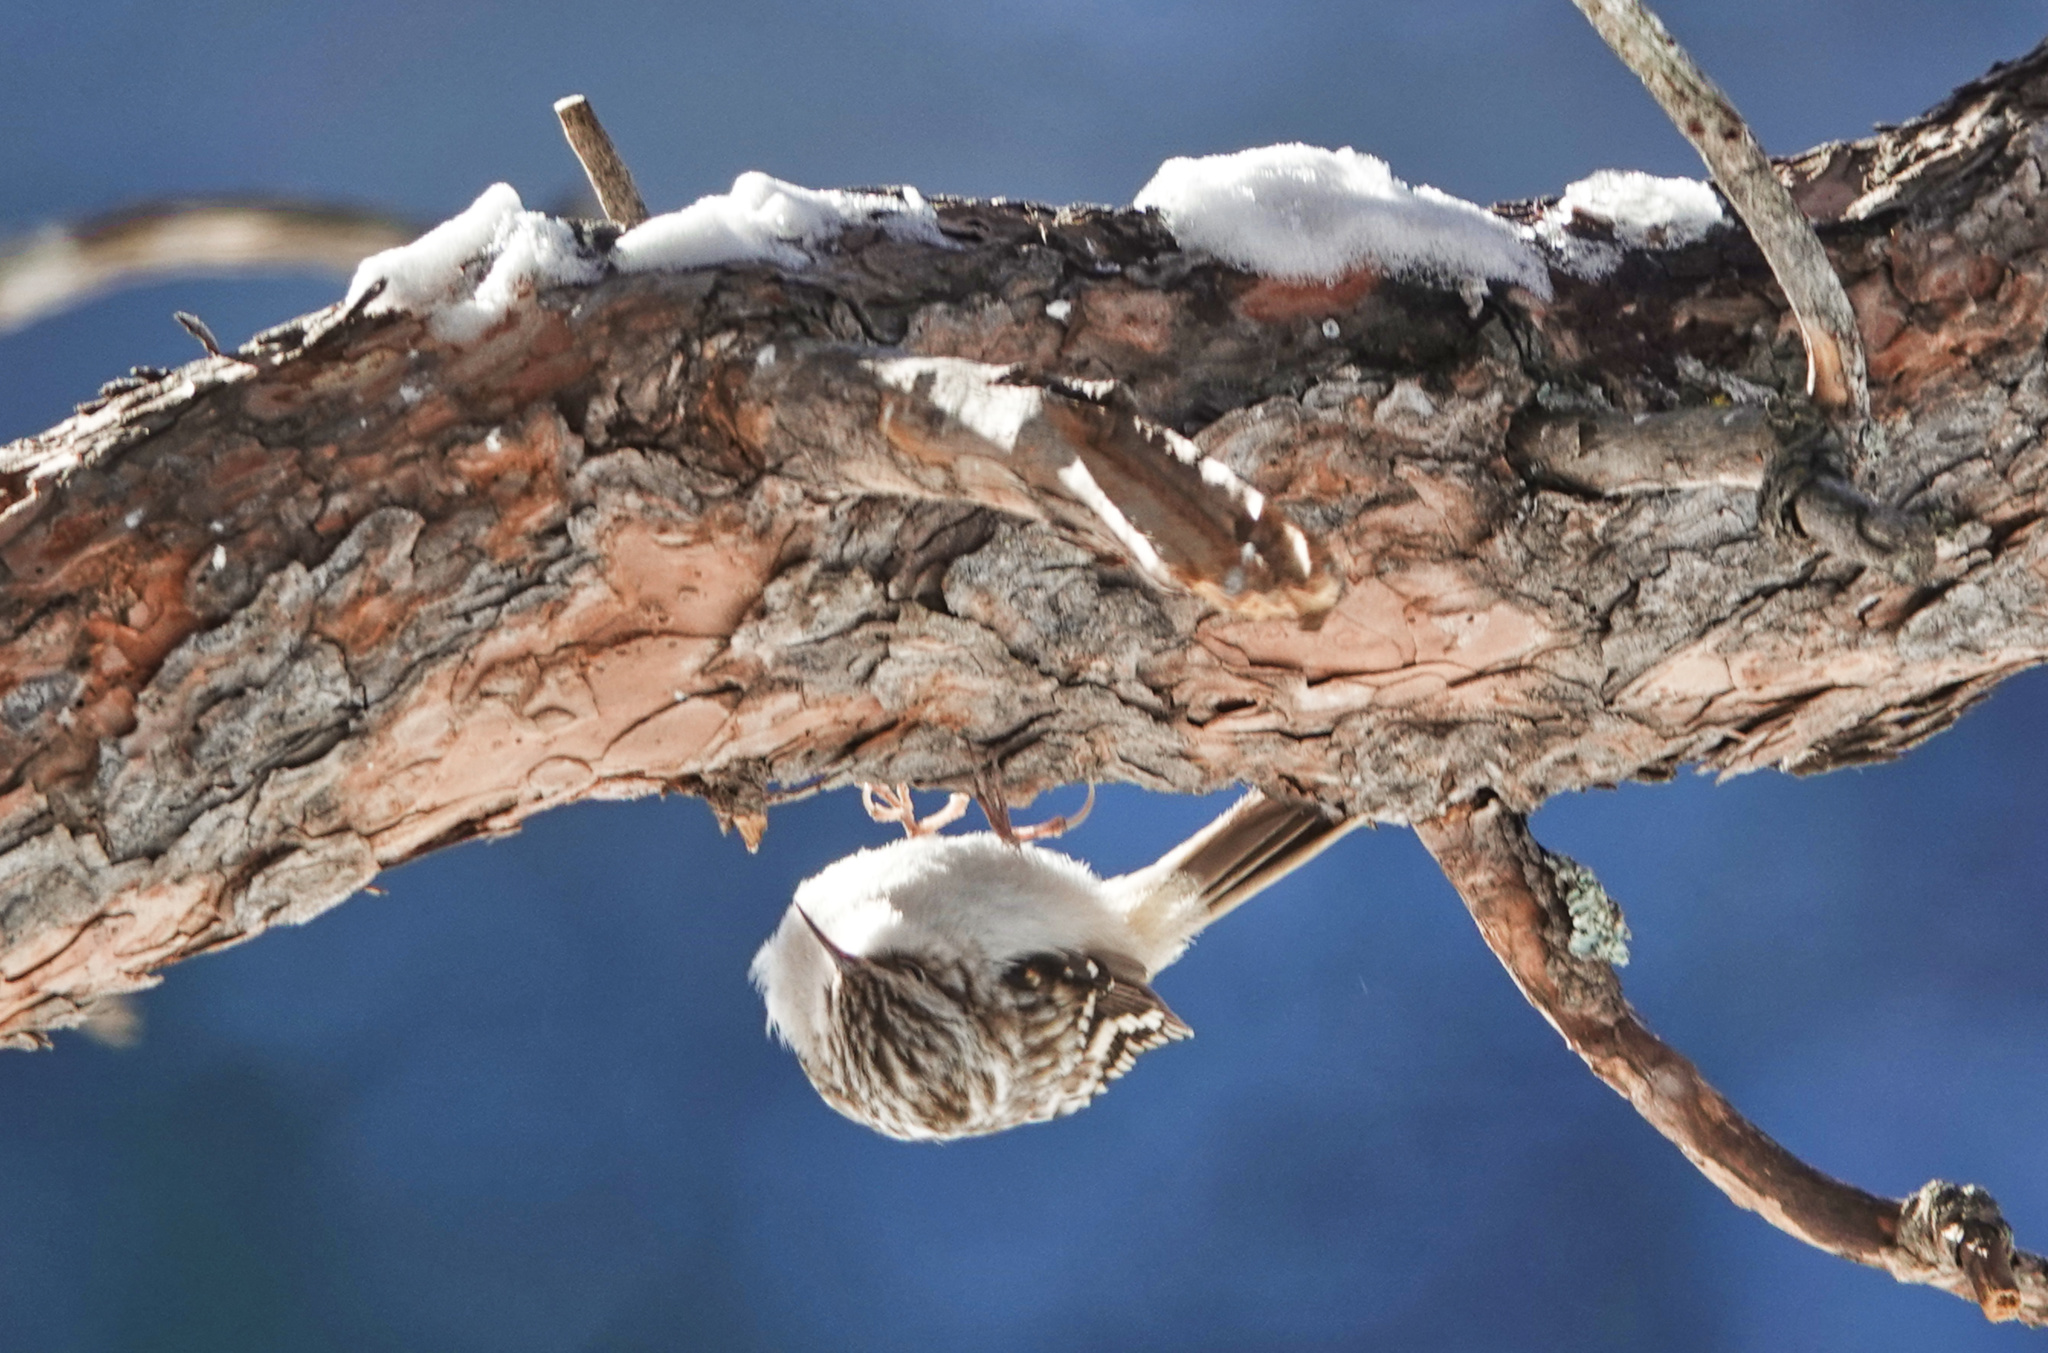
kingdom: Animalia
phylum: Chordata
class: Aves
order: Passeriformes
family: Certhiidae
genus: Certhia
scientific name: Certhia americana
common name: Brown creeper
